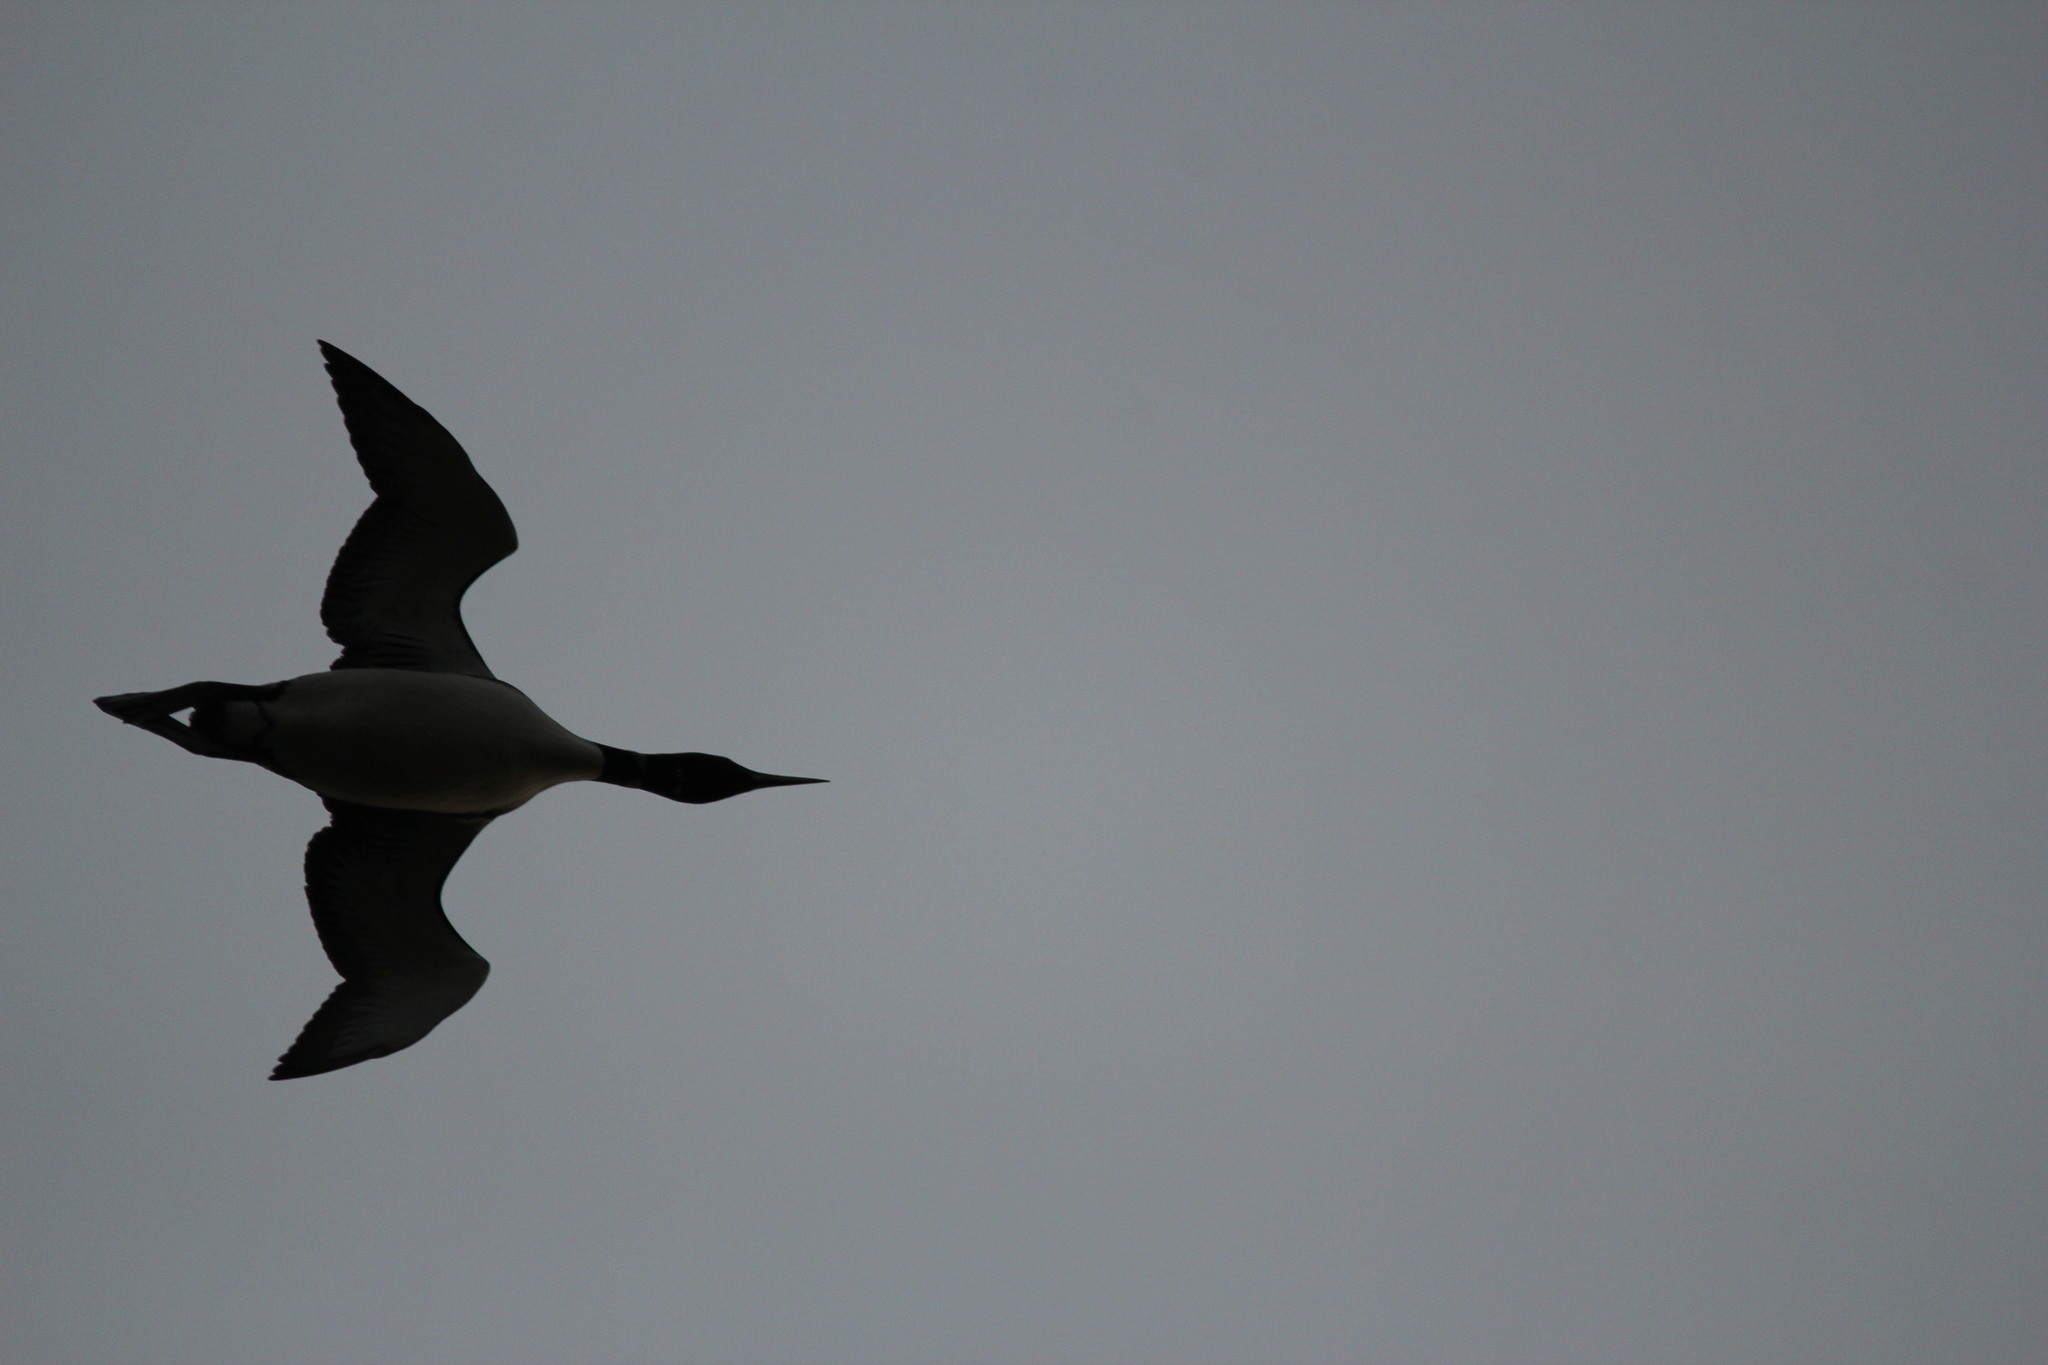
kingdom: Animalia
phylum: Chordata
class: Aves
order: Gaviiformes
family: Gaviidae
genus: Gavia
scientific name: Gavia immer
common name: Common loon
